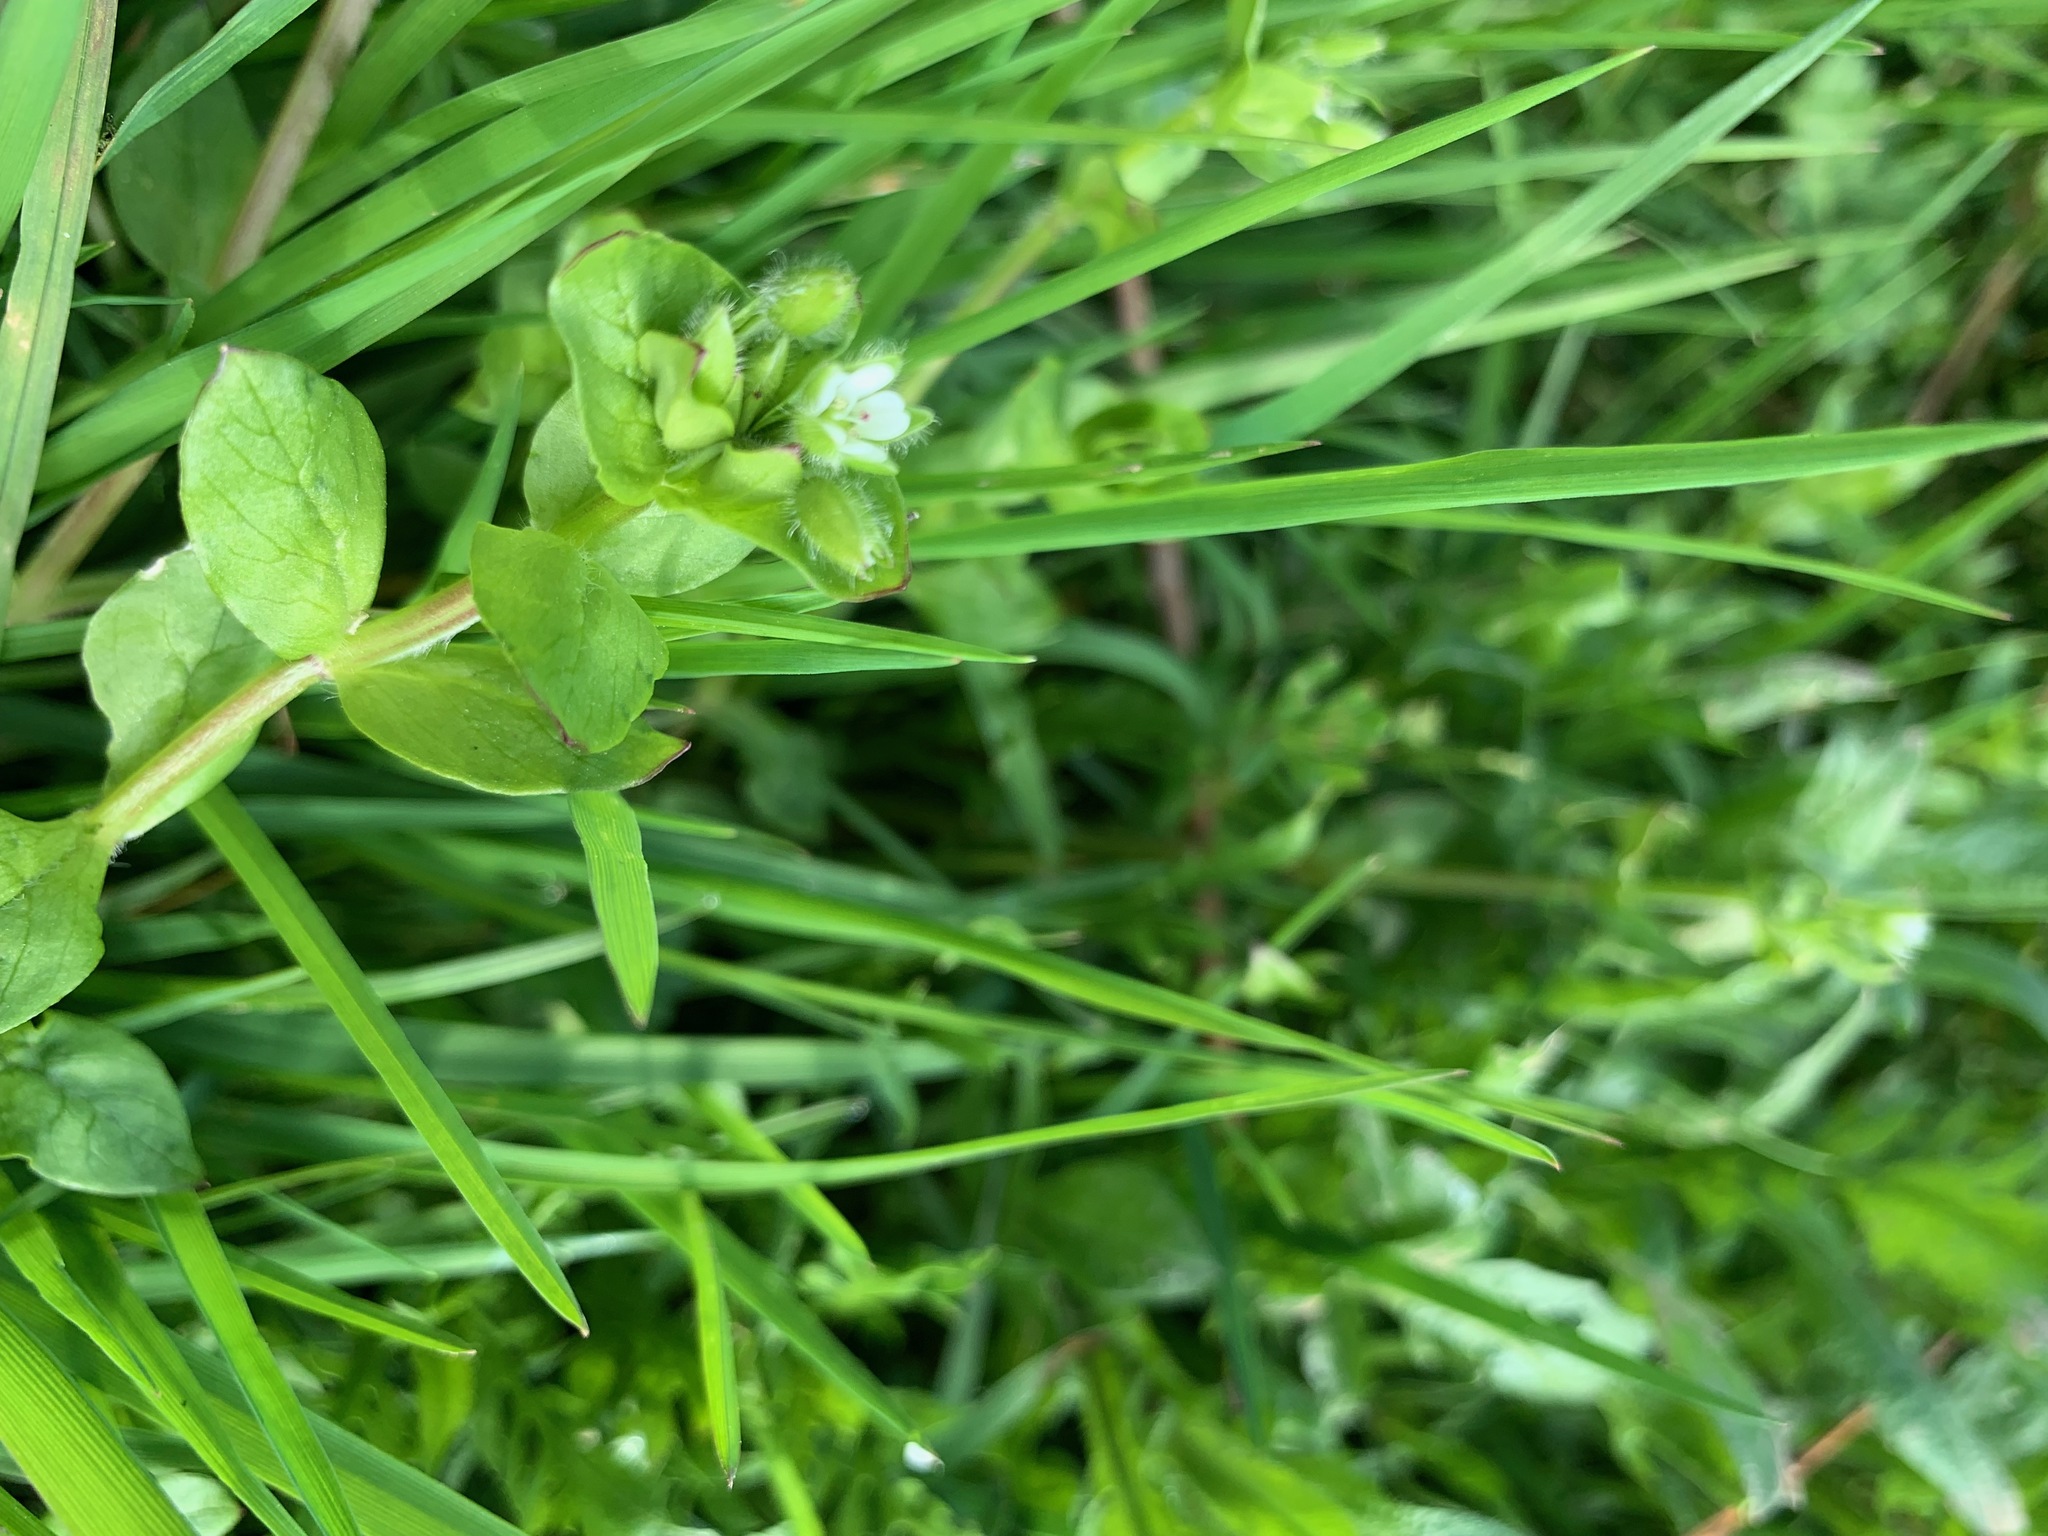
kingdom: Plantae
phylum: Tracheophyta
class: Magnoliopsida
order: Caryophyllales
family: Caryophyllaceae
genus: Stellaria
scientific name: Stellaria media
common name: Common chickweed
